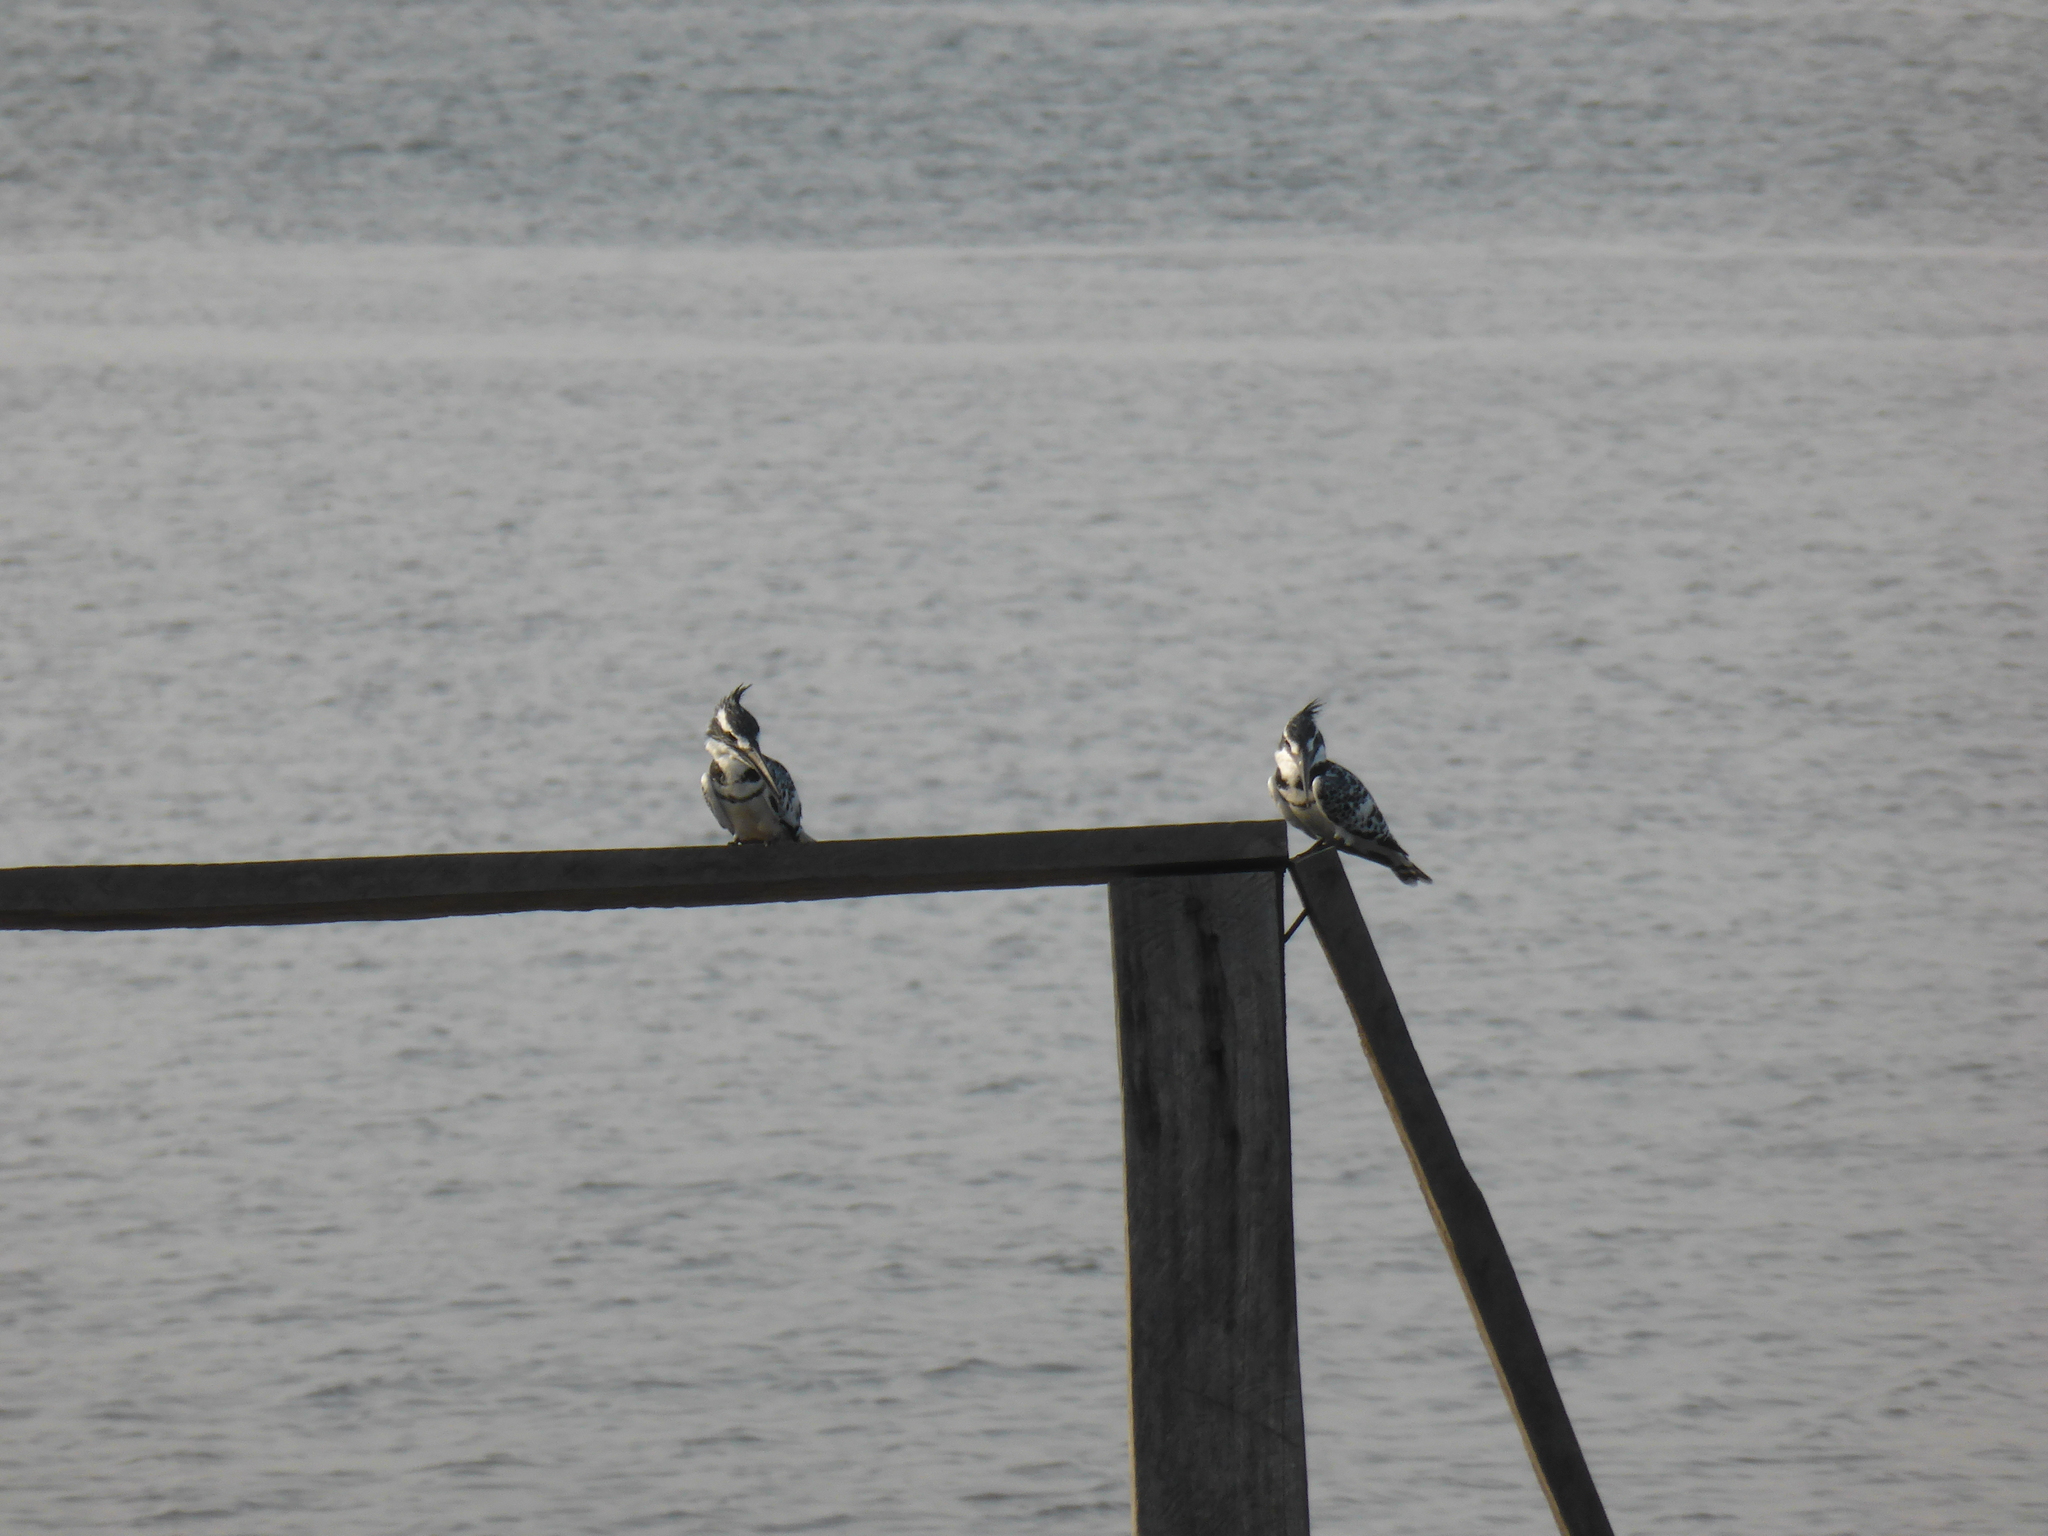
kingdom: Animalia
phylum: Chordata
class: Aves
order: Coraciiformes
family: Alcedinidae
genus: Ceryle
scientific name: Ceryle rudis
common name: Pied kingfisher
